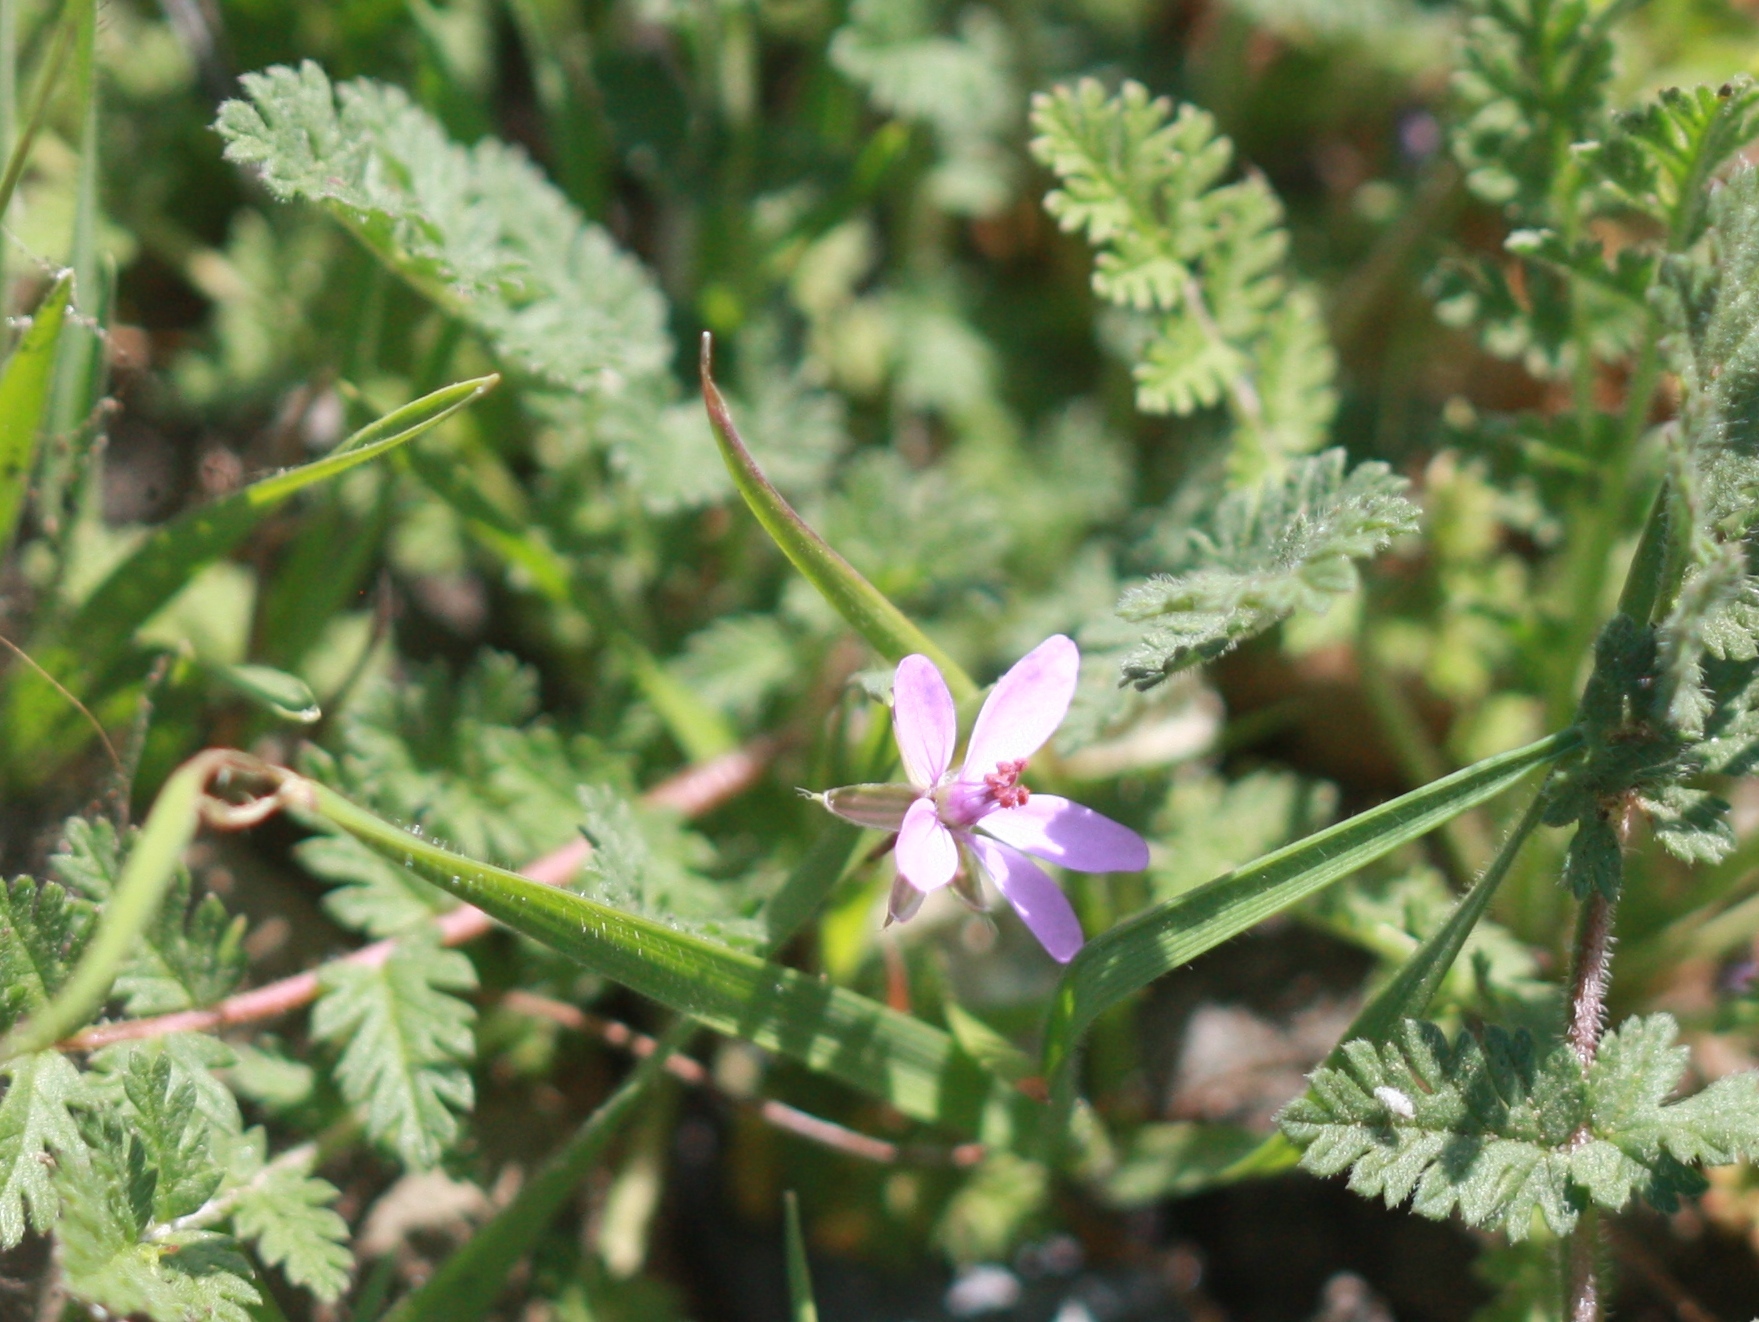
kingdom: Plantae
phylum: Tracheophyta
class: Magnoliopsida
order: Geraniales
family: Geraniaceae
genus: Erodium
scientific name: Erodium cicutarium
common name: Common stork's-bill
